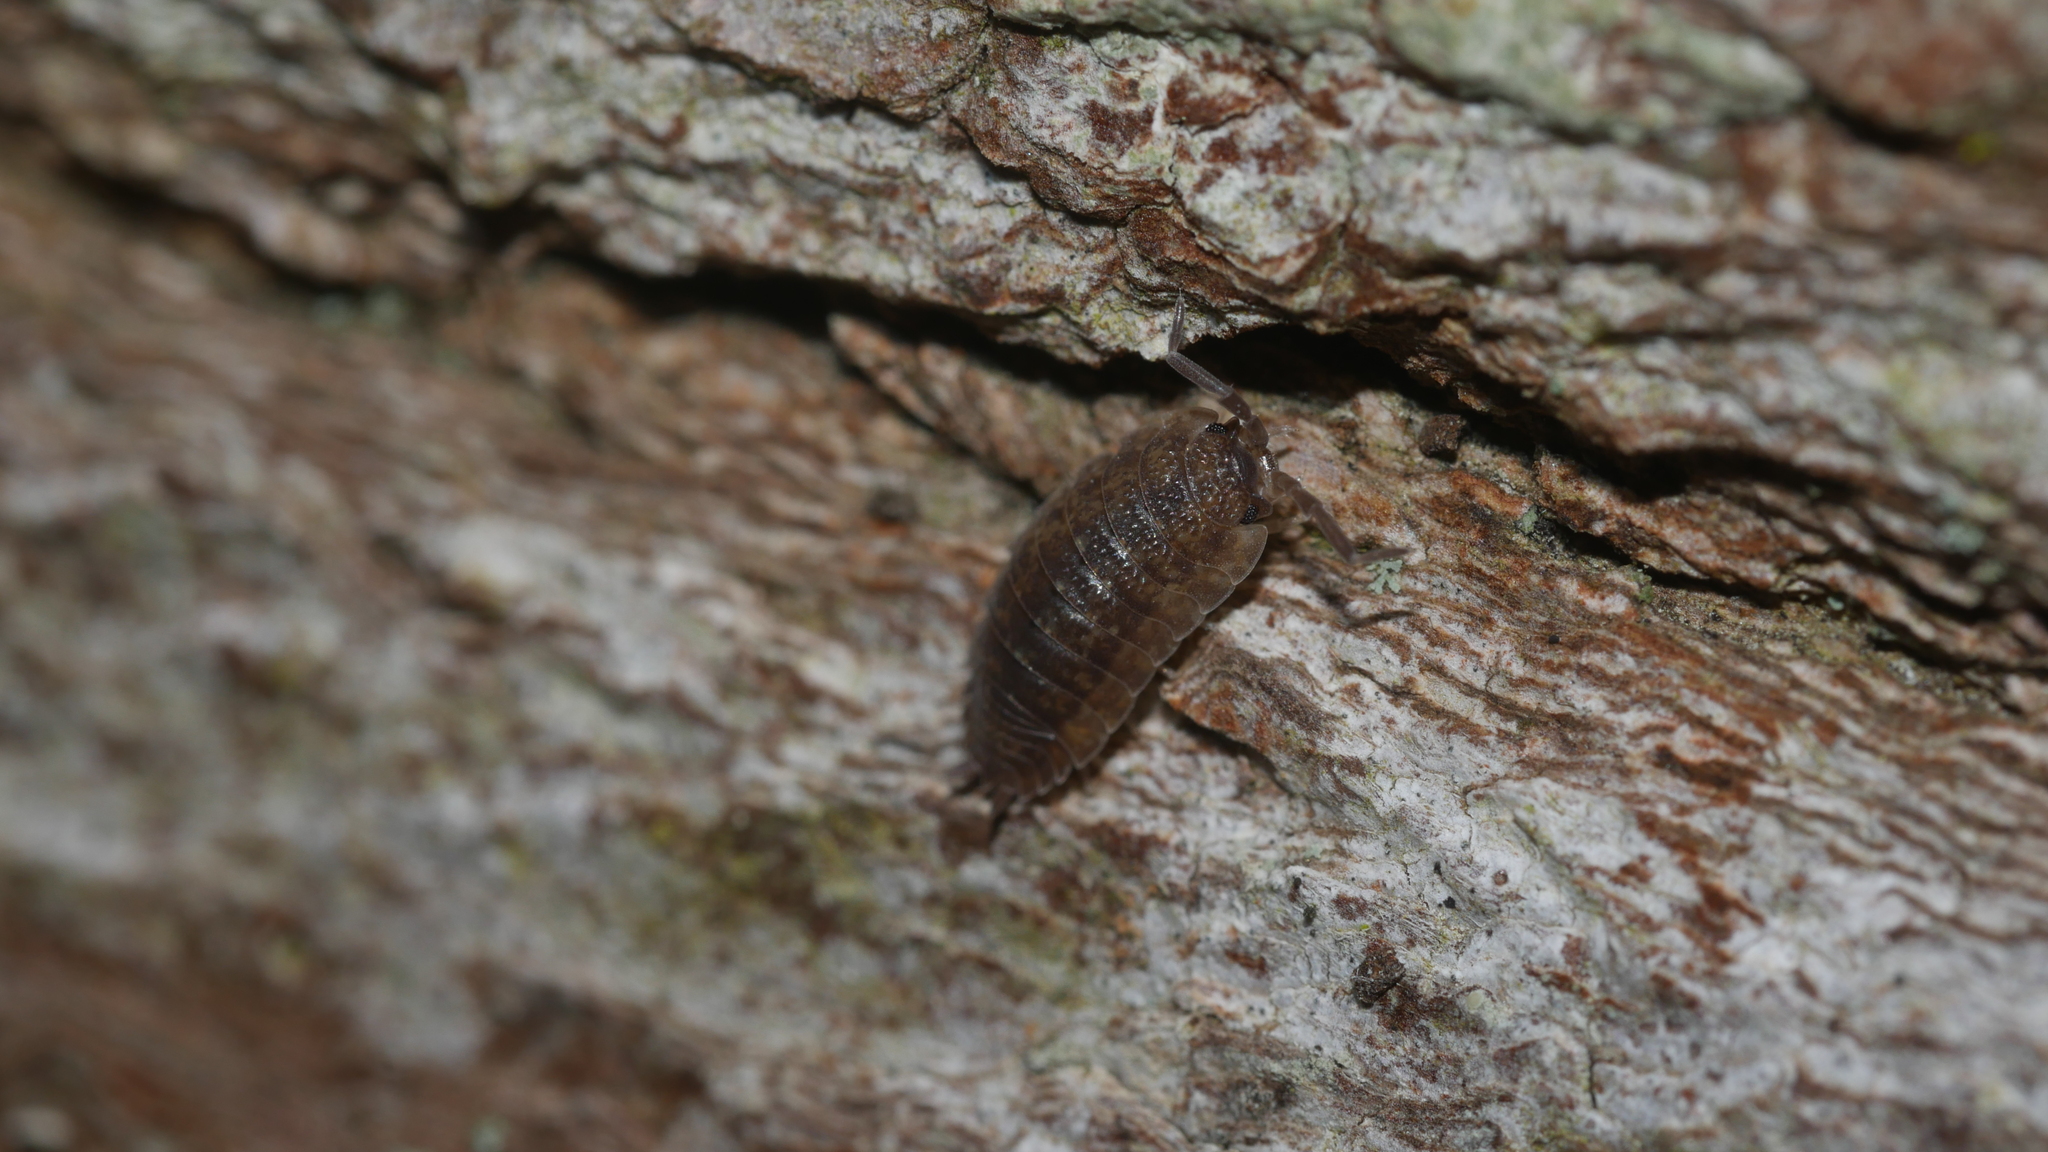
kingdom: Animalia
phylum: Arthropoda
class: Malacostraca
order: Isopoda
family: Porcellionidae
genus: Porcellio
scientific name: Porcellio scaber
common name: Common rough woodlouse
